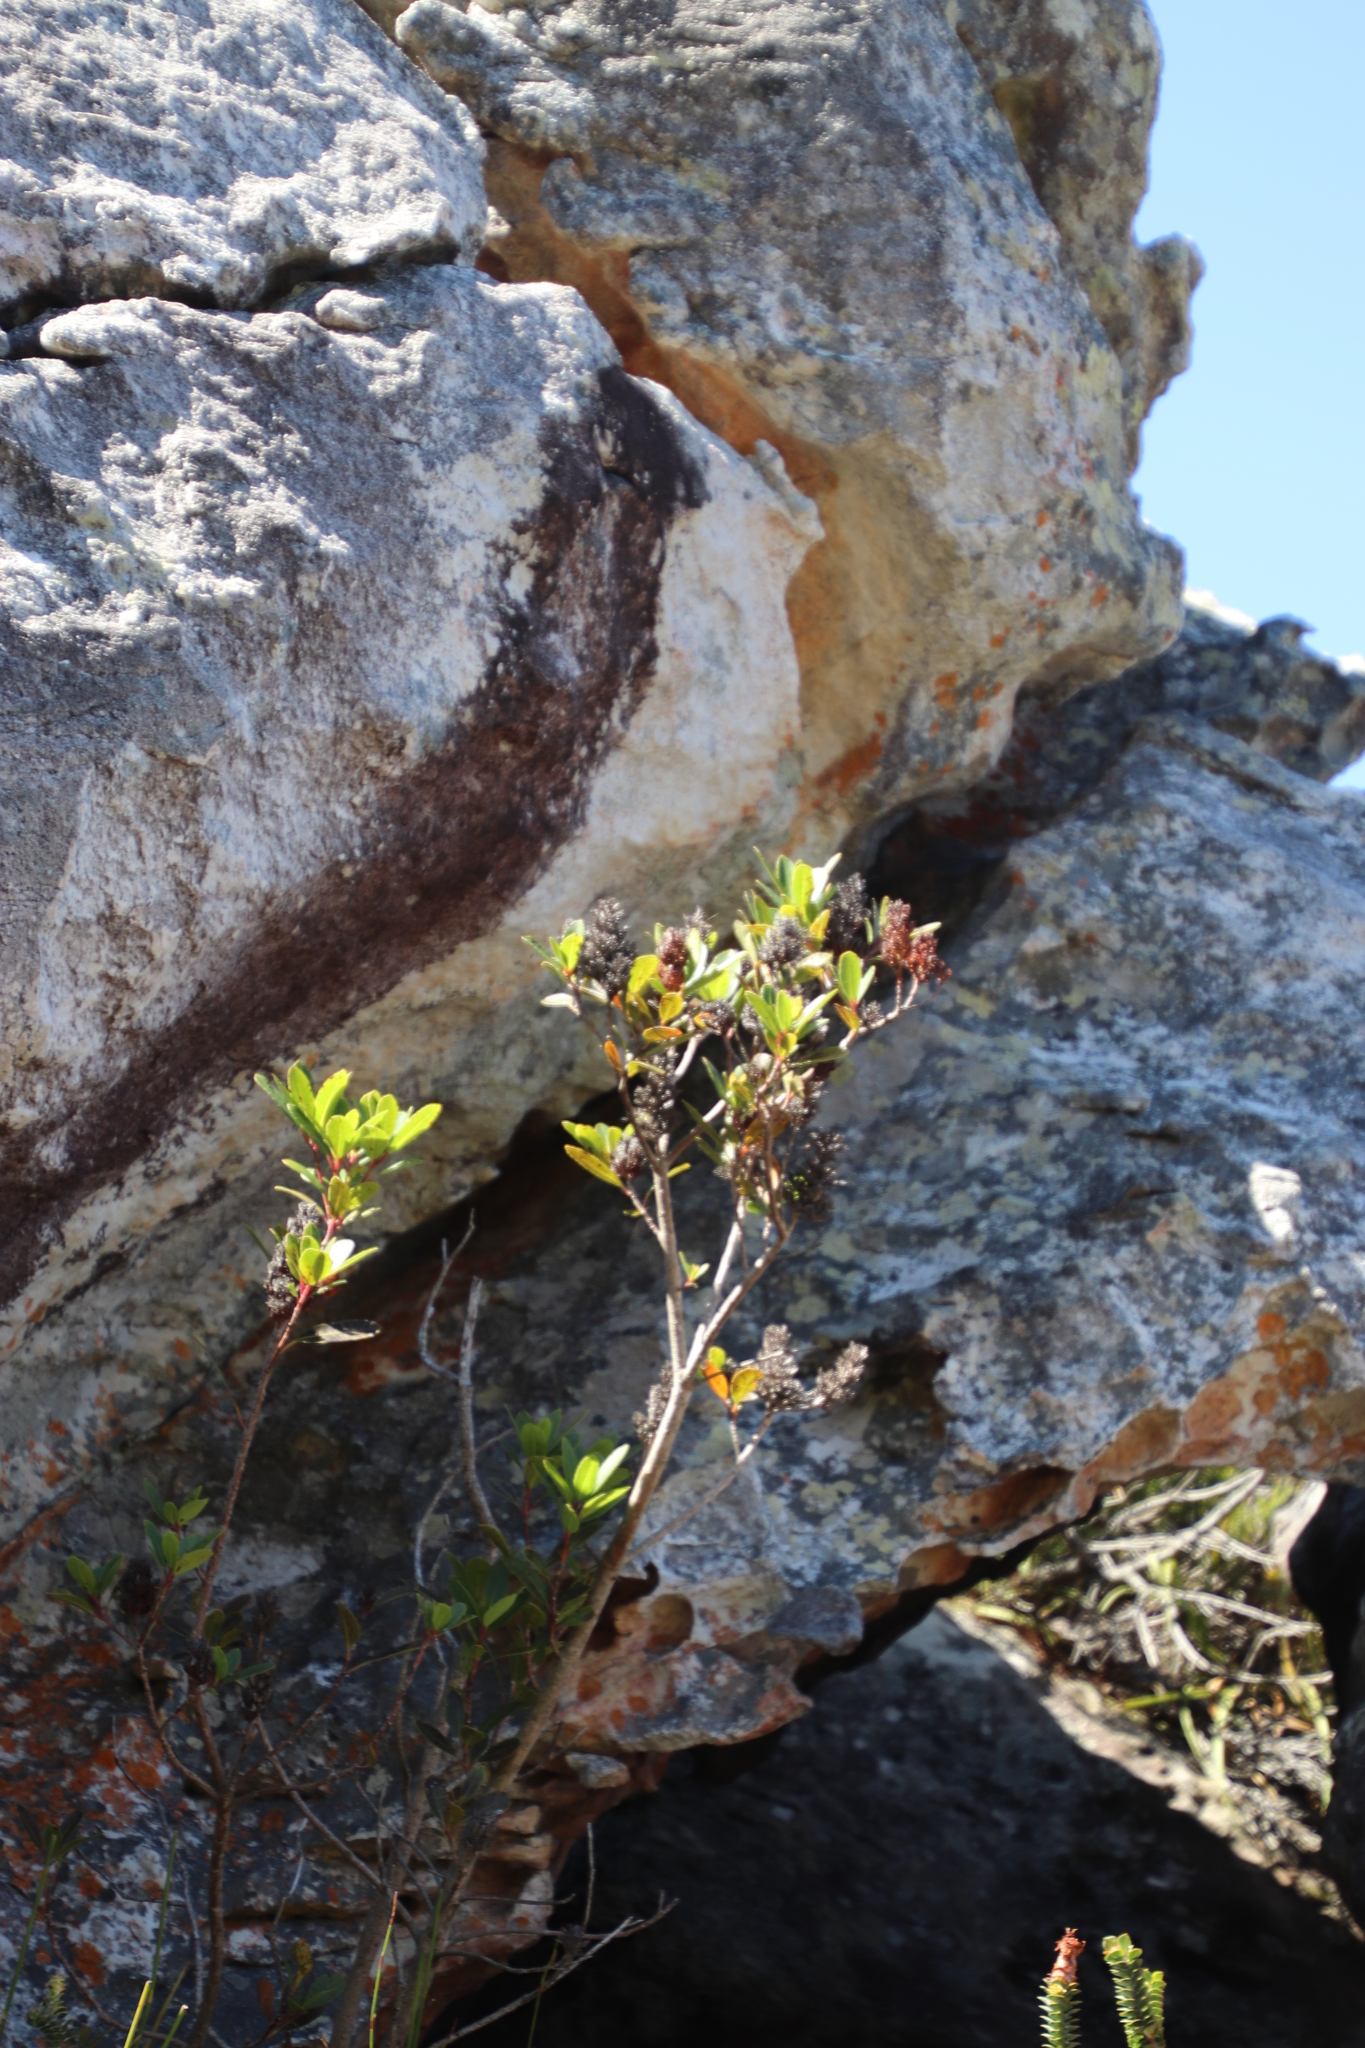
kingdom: Plantae
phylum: Tracheophyta
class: Magnoliopsida
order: Sapindales
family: Anacardiaceae
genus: Laurophyllus
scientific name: Laurophyllus capensis
